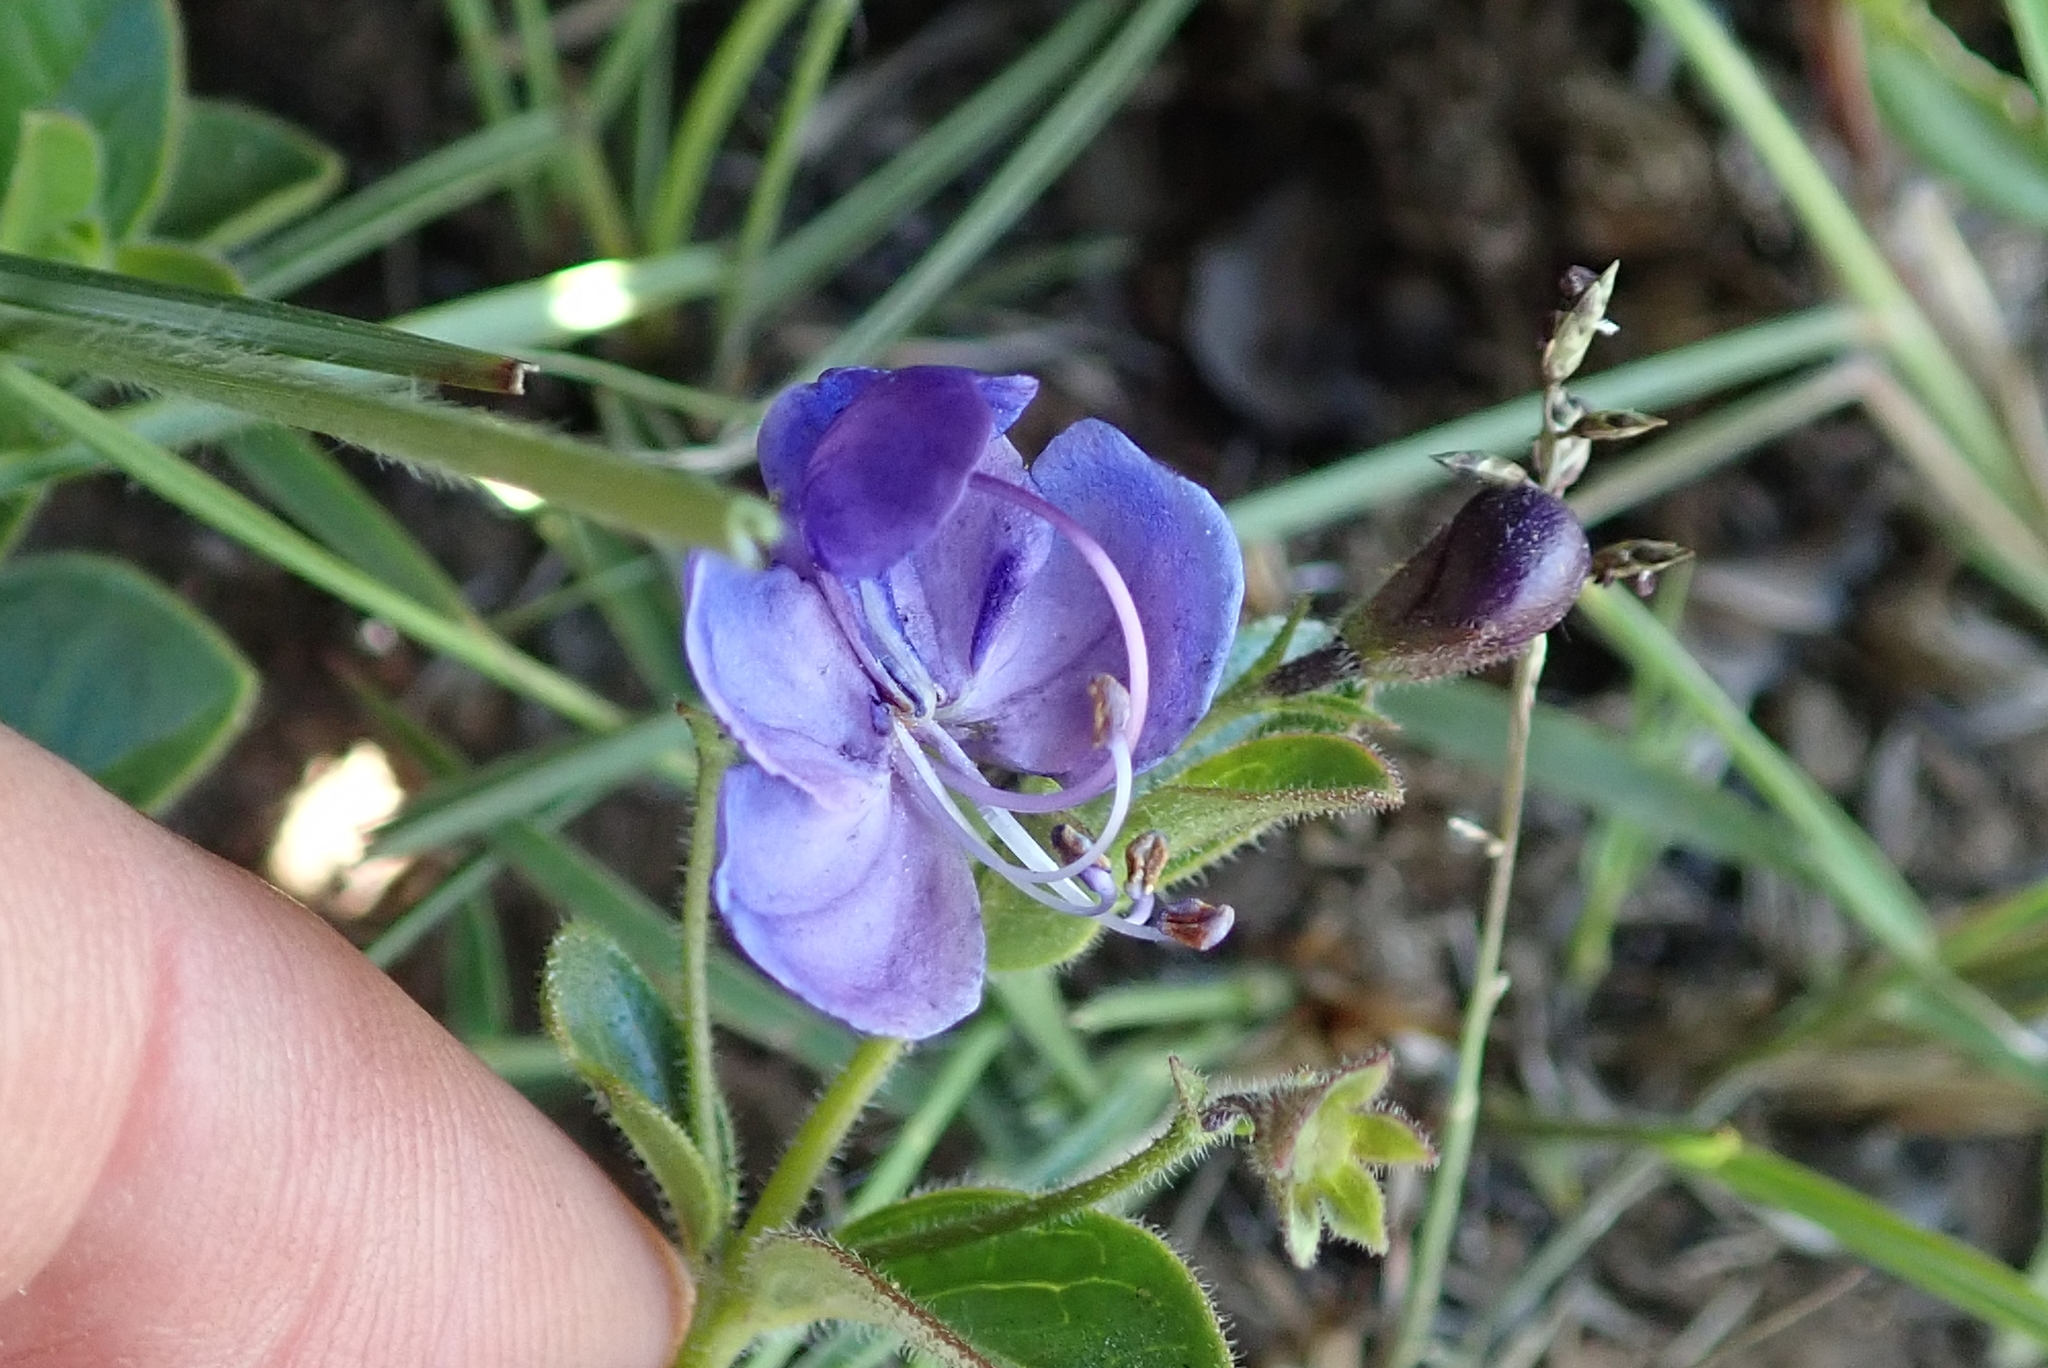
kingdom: Plantae
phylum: Tracheophyta
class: Magnoliopsida
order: Lamiales
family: Lamiaceae
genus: Rotheca
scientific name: Rotheca hirsuta
